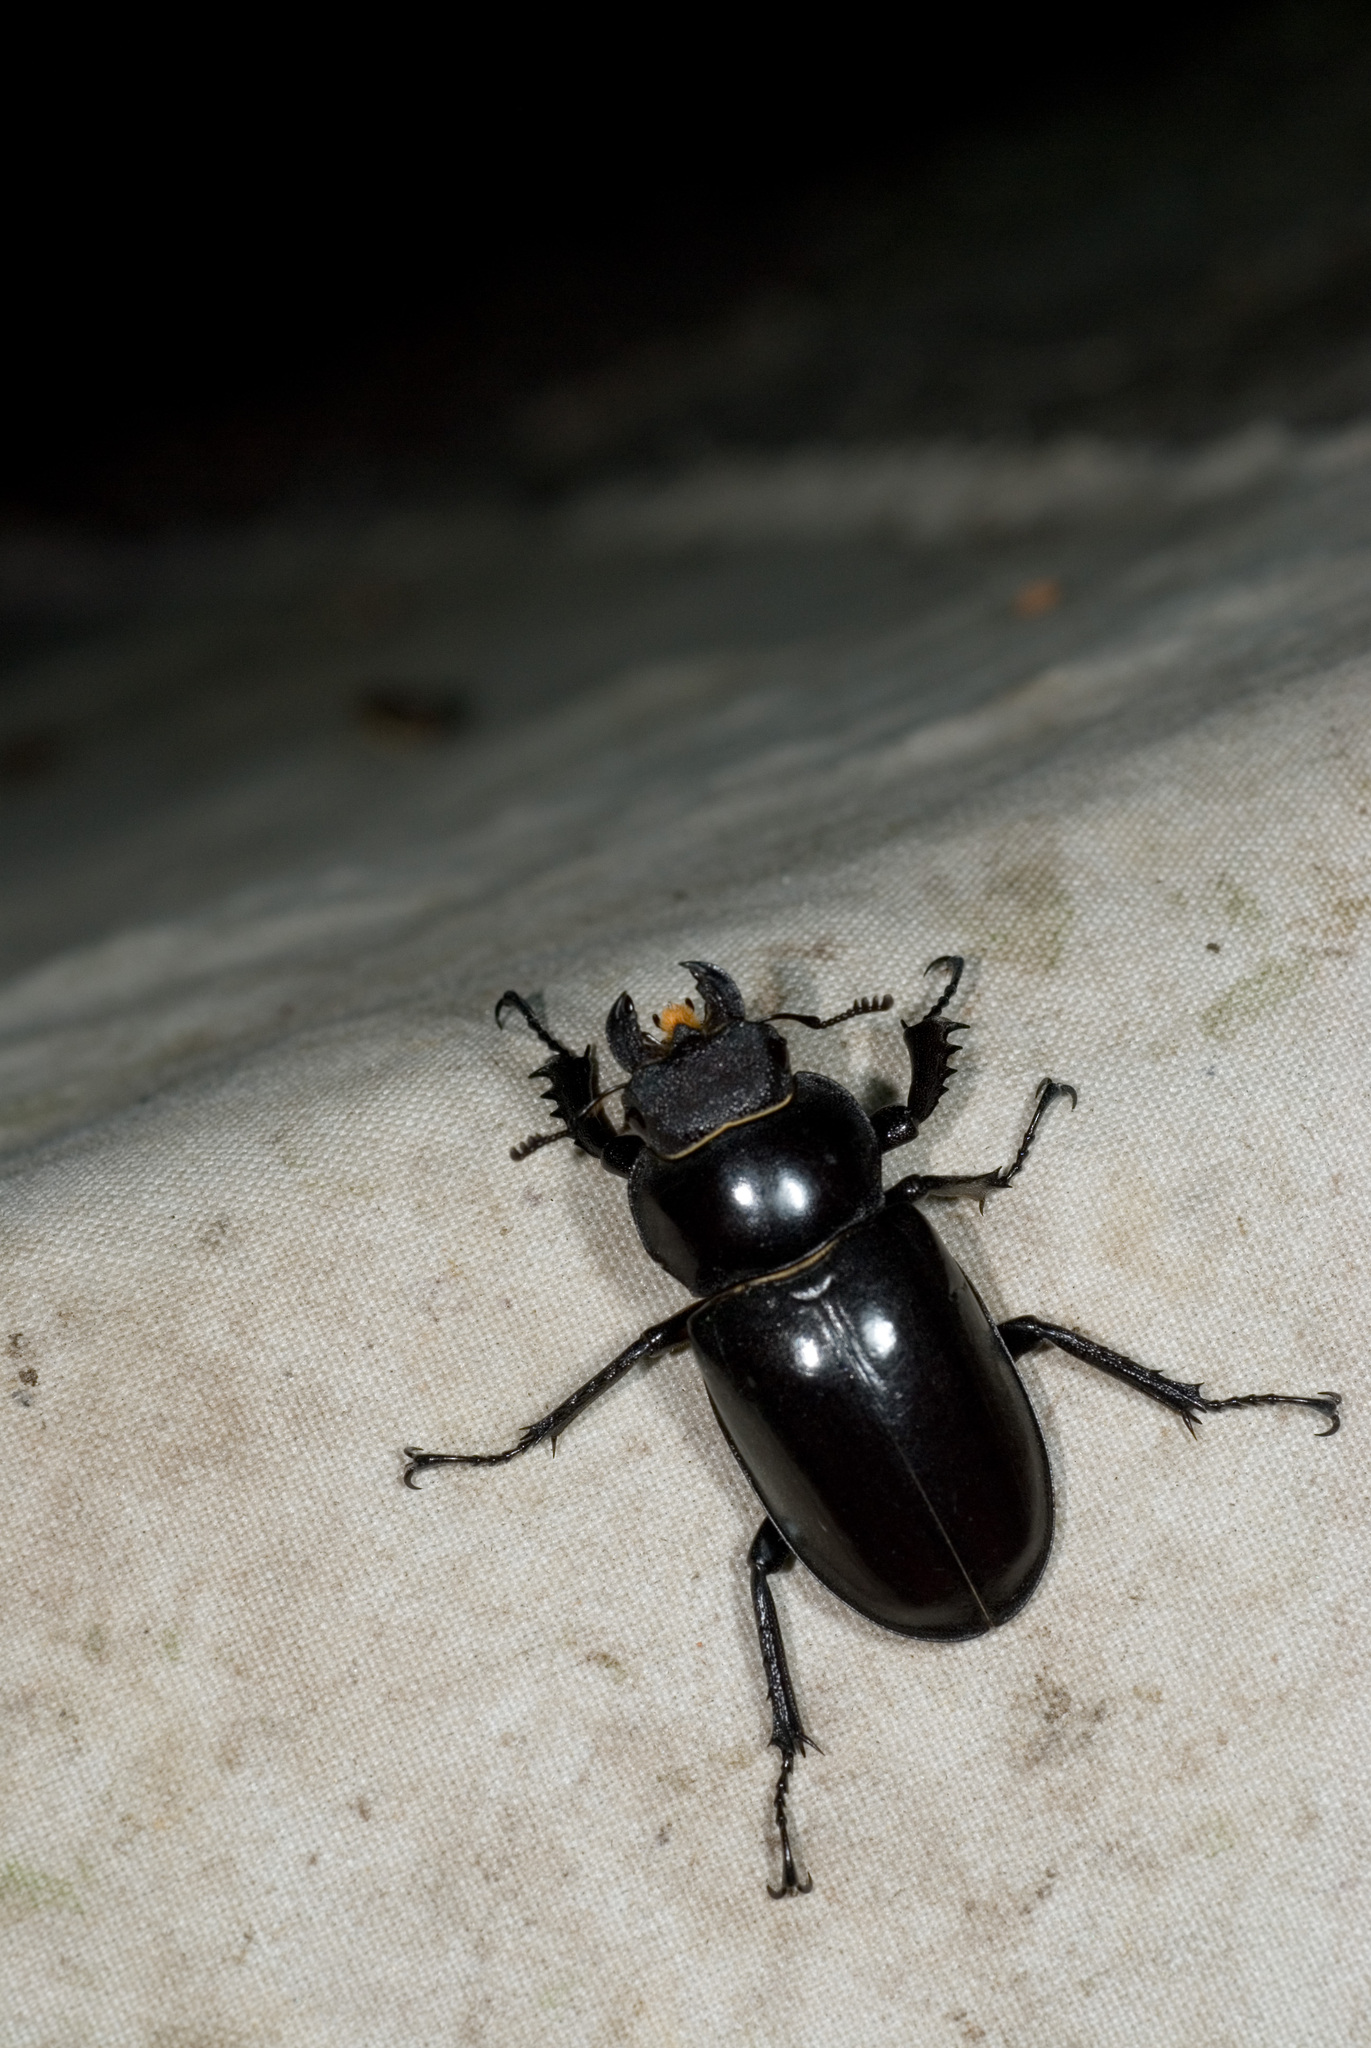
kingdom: Animalia
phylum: Arthropoda
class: Insecta
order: Coleoptera
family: Lucanidae
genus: Lucanus
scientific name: Lucanus maculifemoratus
